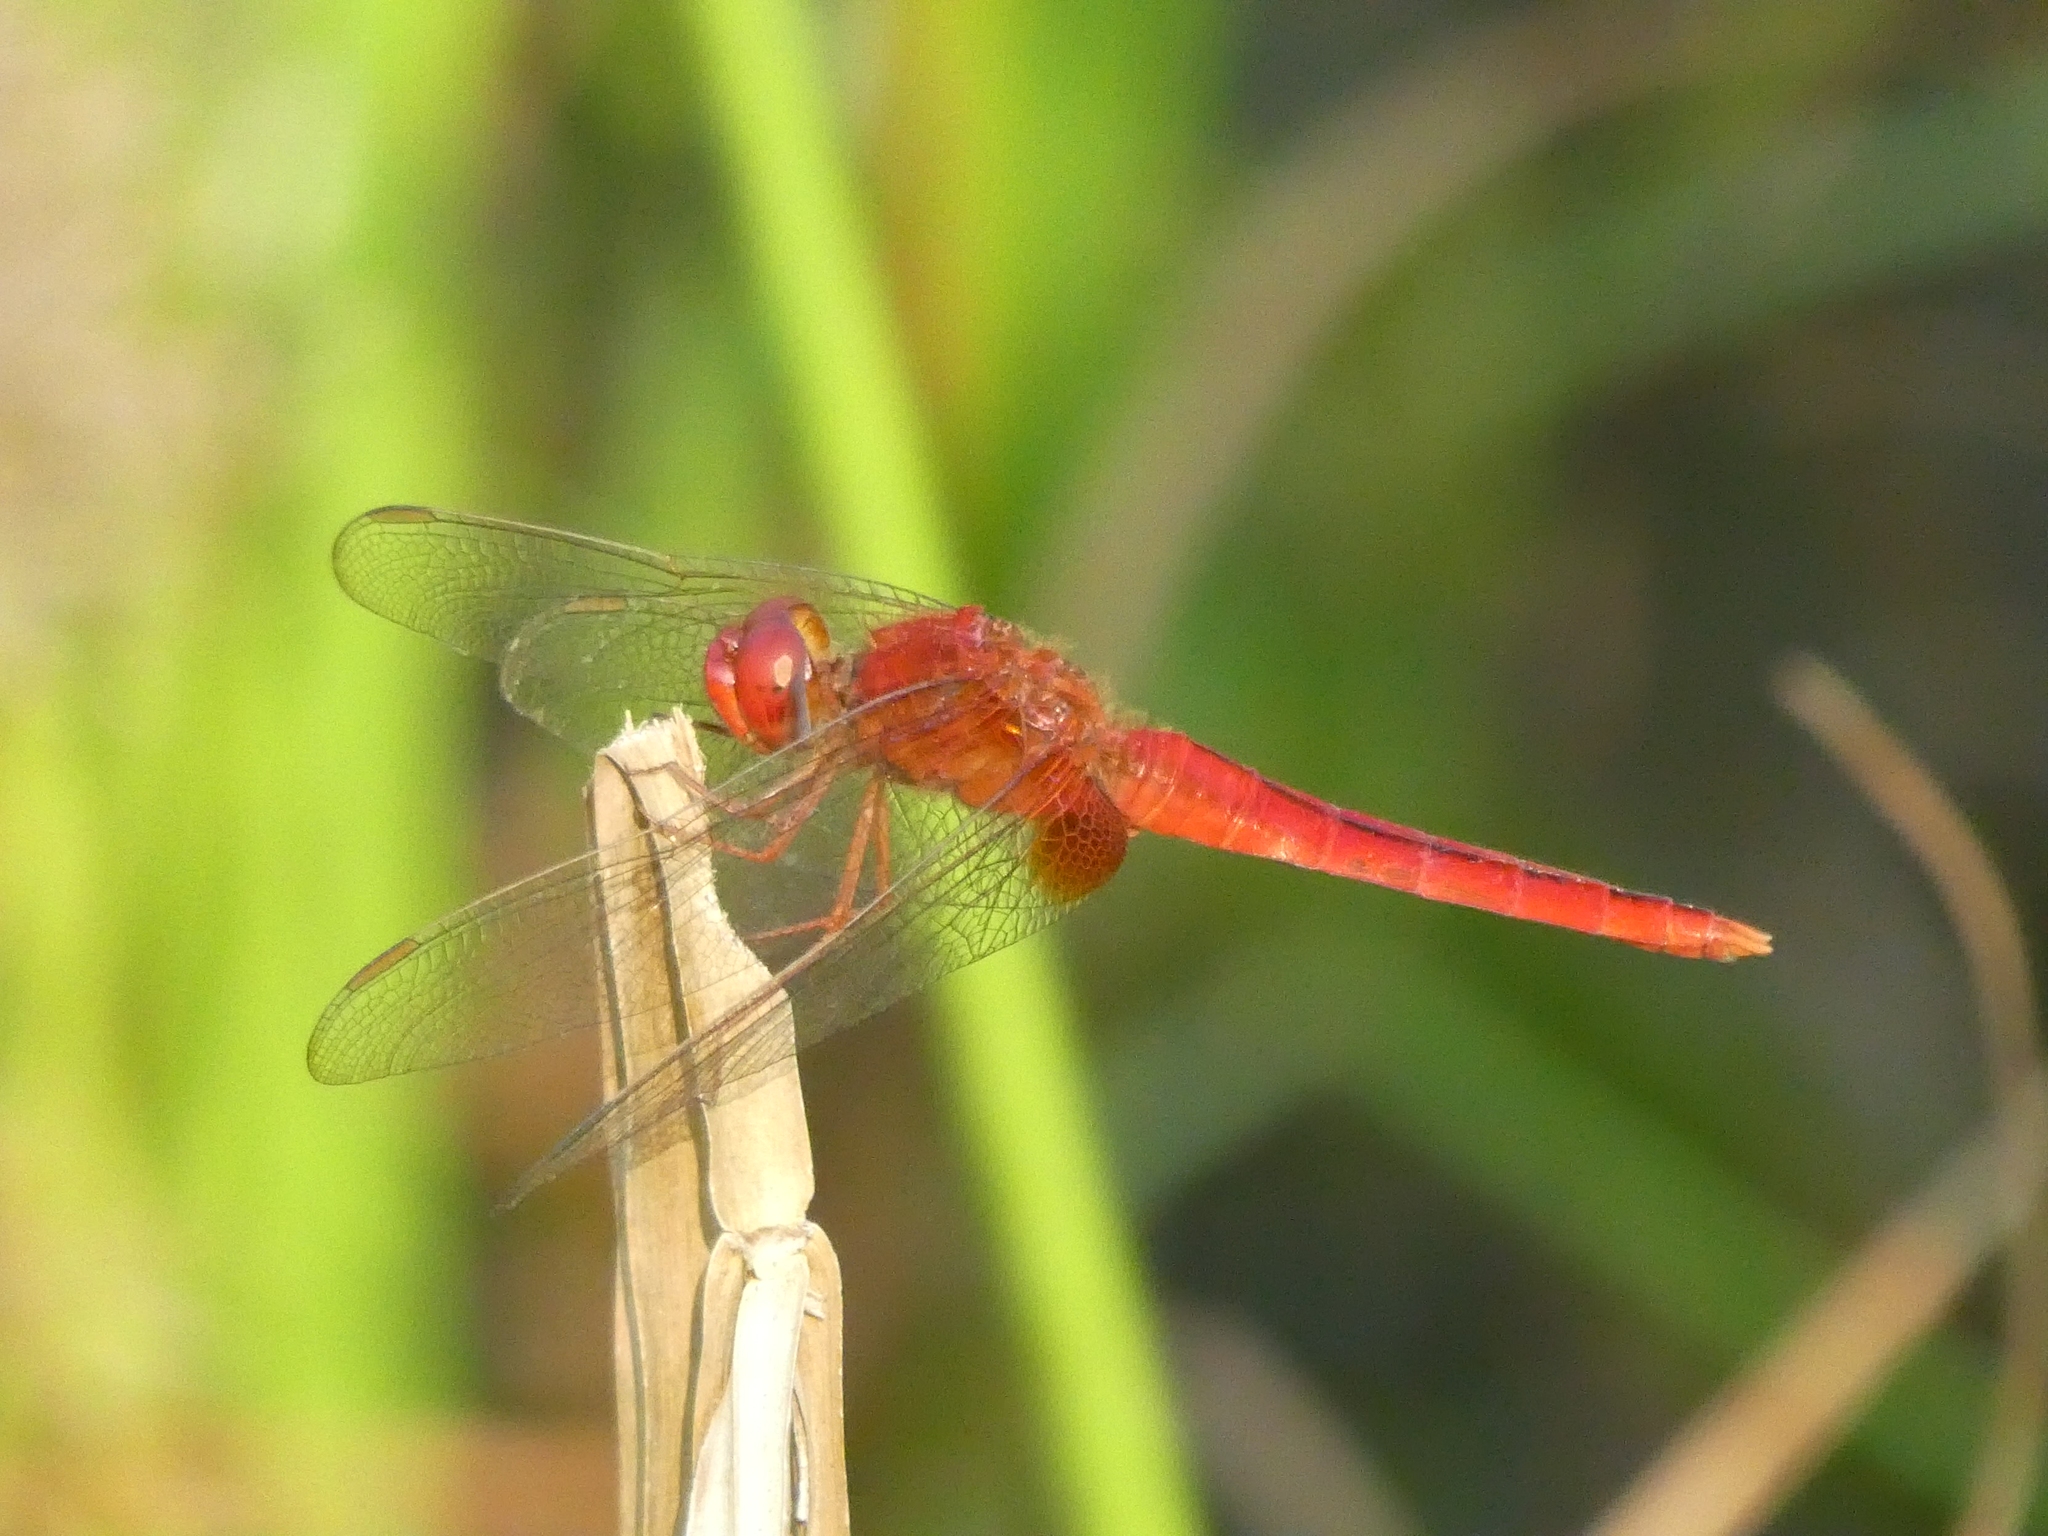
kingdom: Animalia
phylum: Arthropoda
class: Insecta
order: Odonata
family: Libellulidae
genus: Crocothemis
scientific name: Crocothemis servilia
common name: Scarlet skimmer
